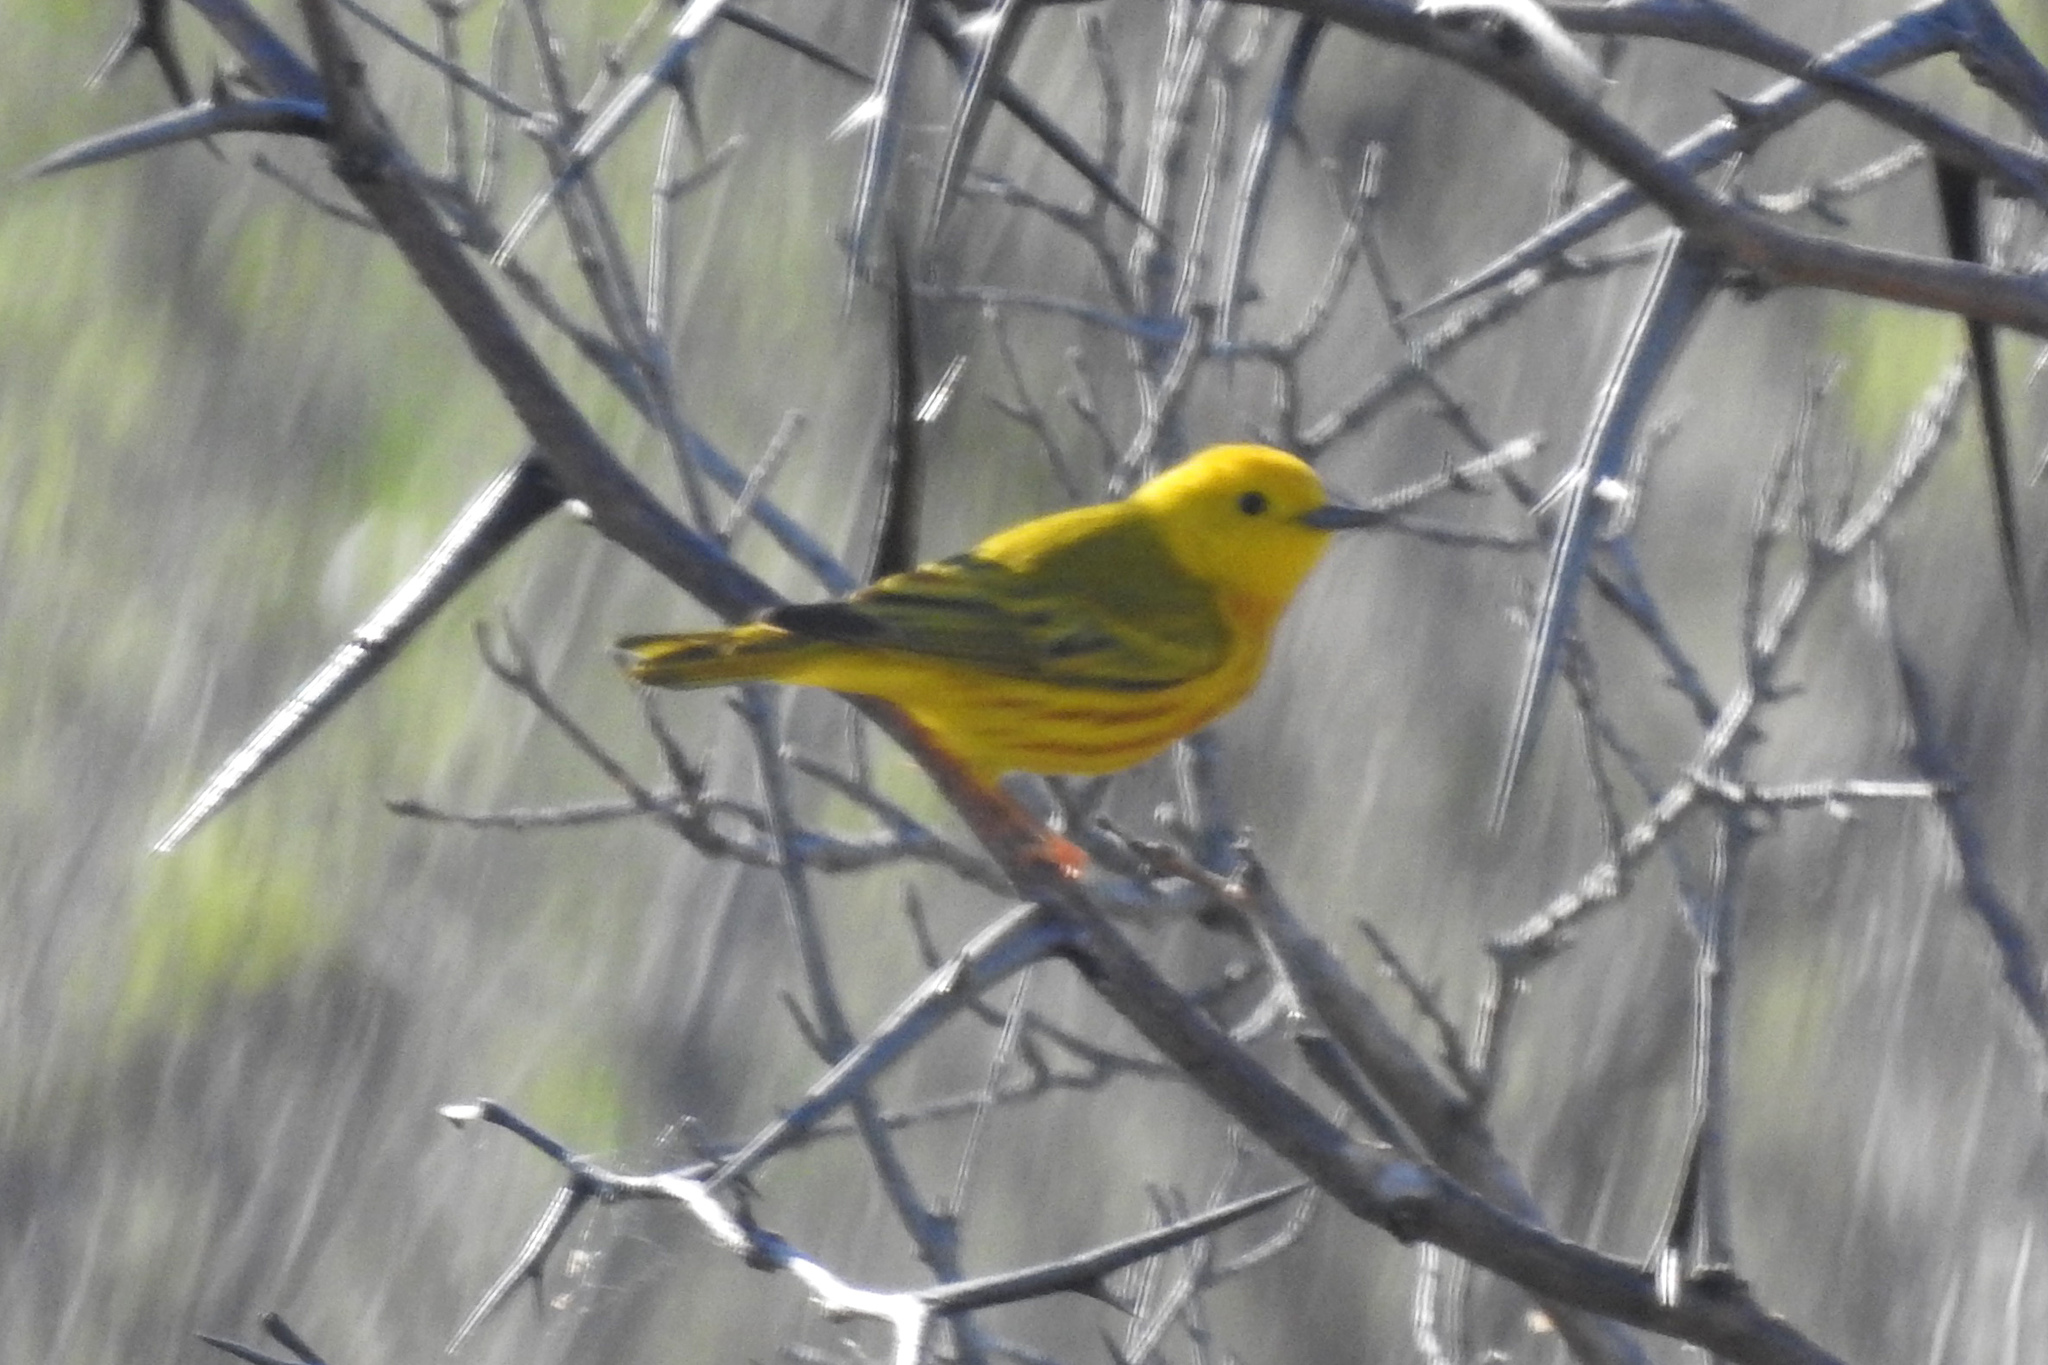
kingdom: Animalia
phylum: Chordata
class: Aves
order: Passeriformes
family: Parulidae
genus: Setophaga
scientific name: Setophaga petechia
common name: Yellow warbler
